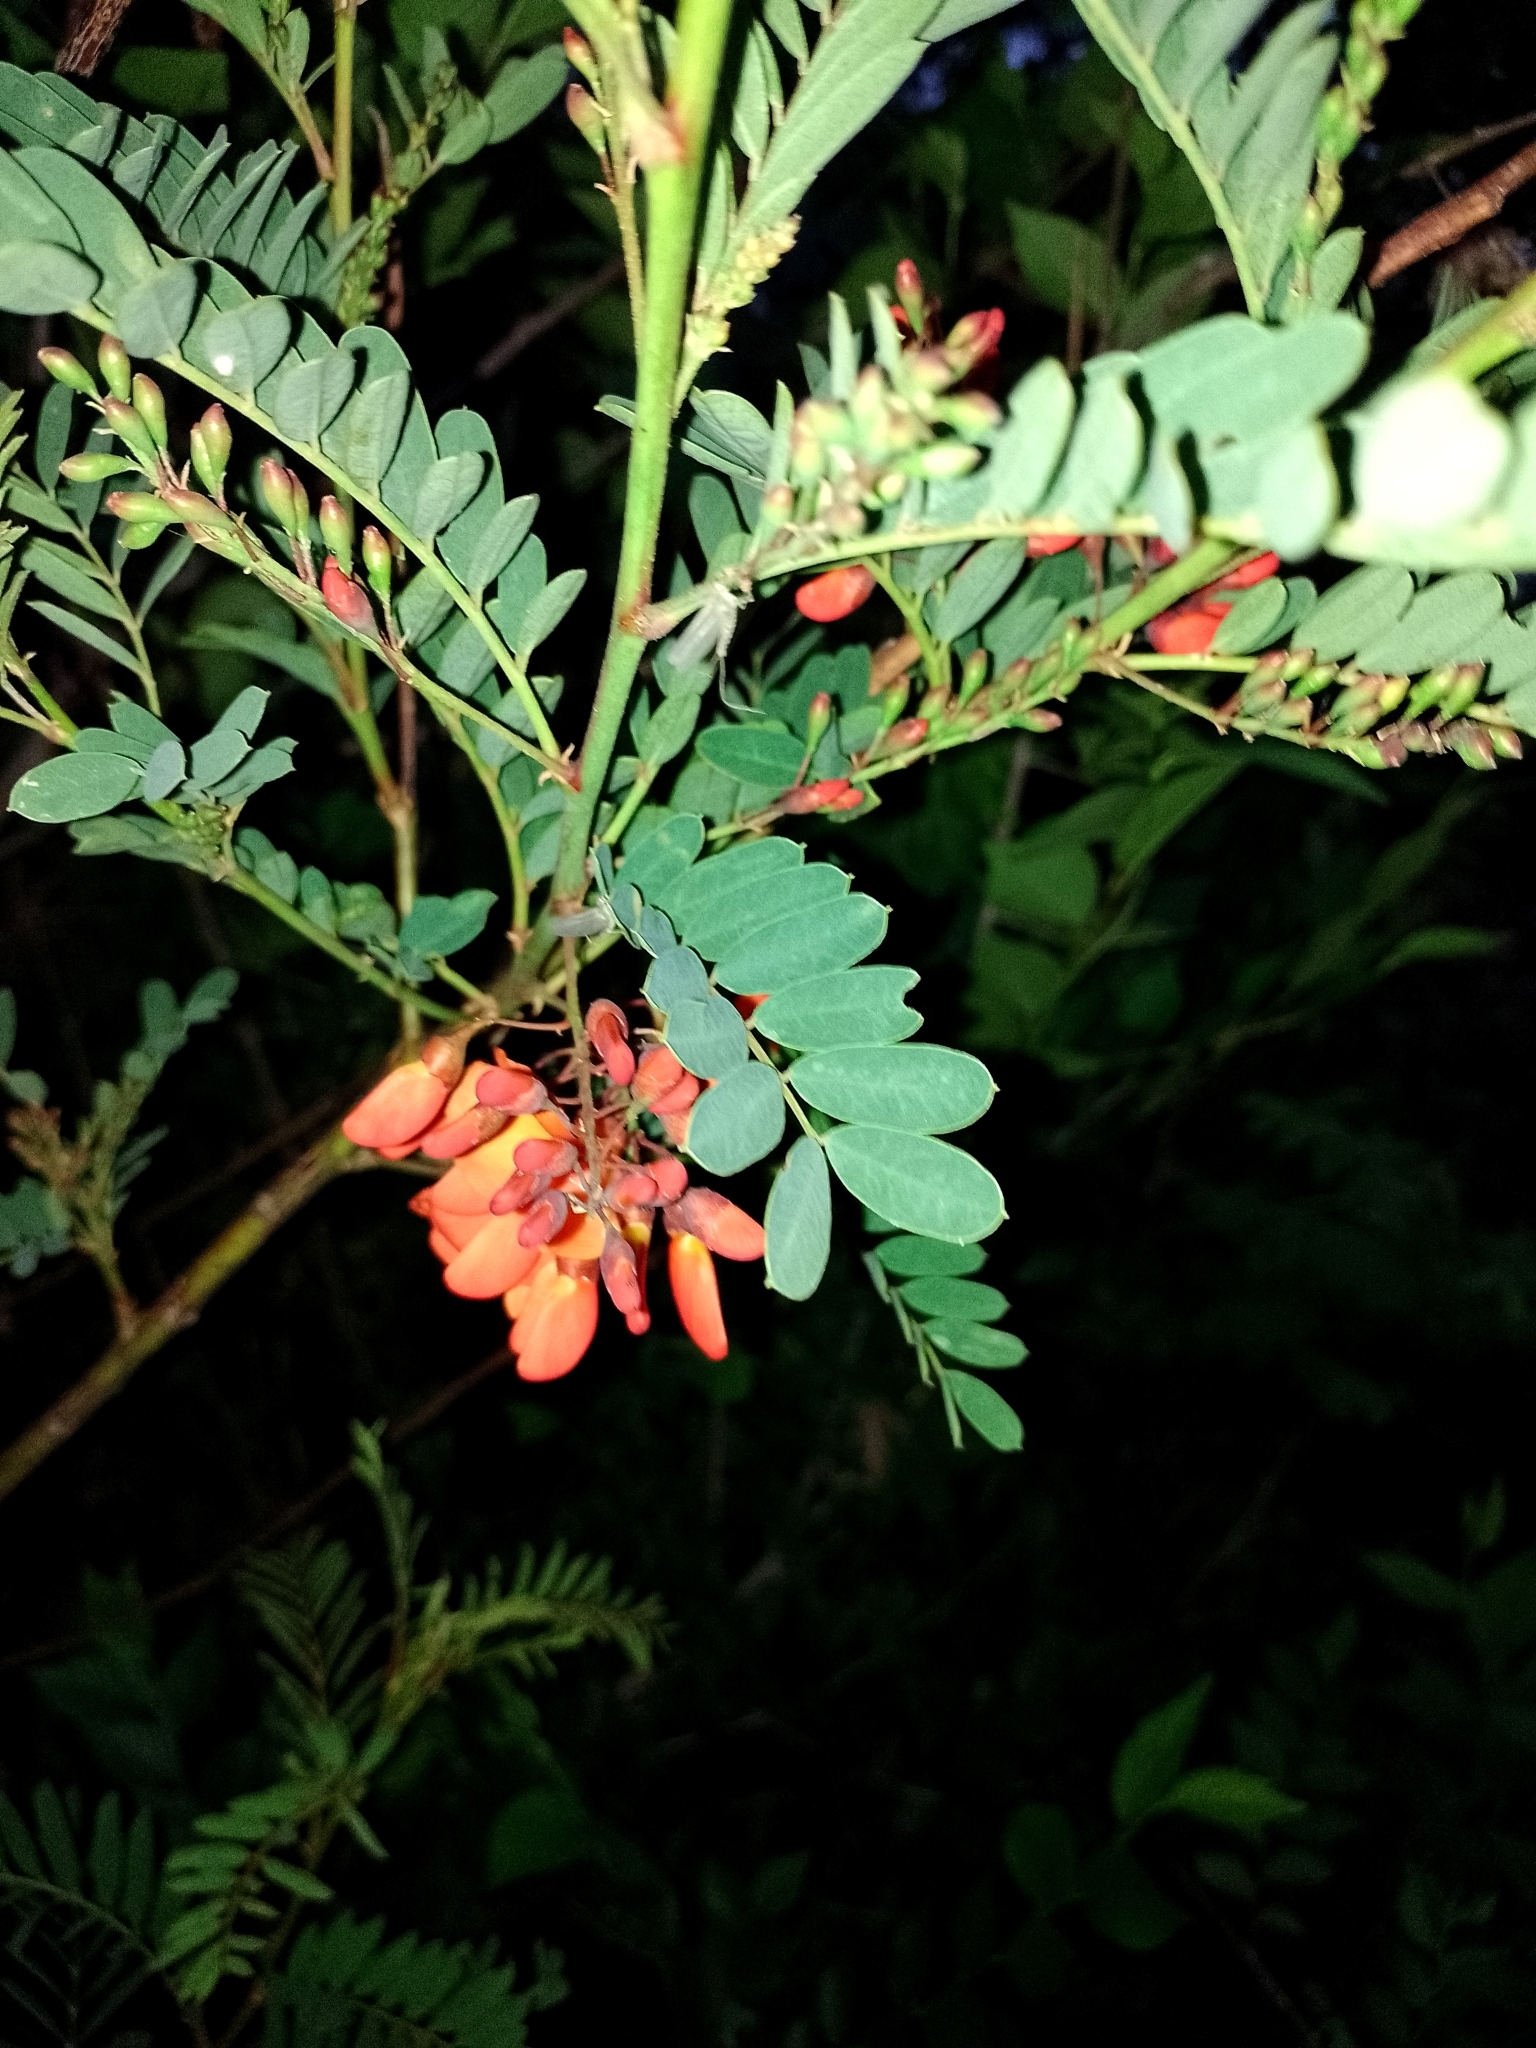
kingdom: Plantae
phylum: Tracheophyta
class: Magnoliopsida
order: Fabales
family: Fabaceae
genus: Sesbania
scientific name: Sesbania punicea
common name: Rattlebox
